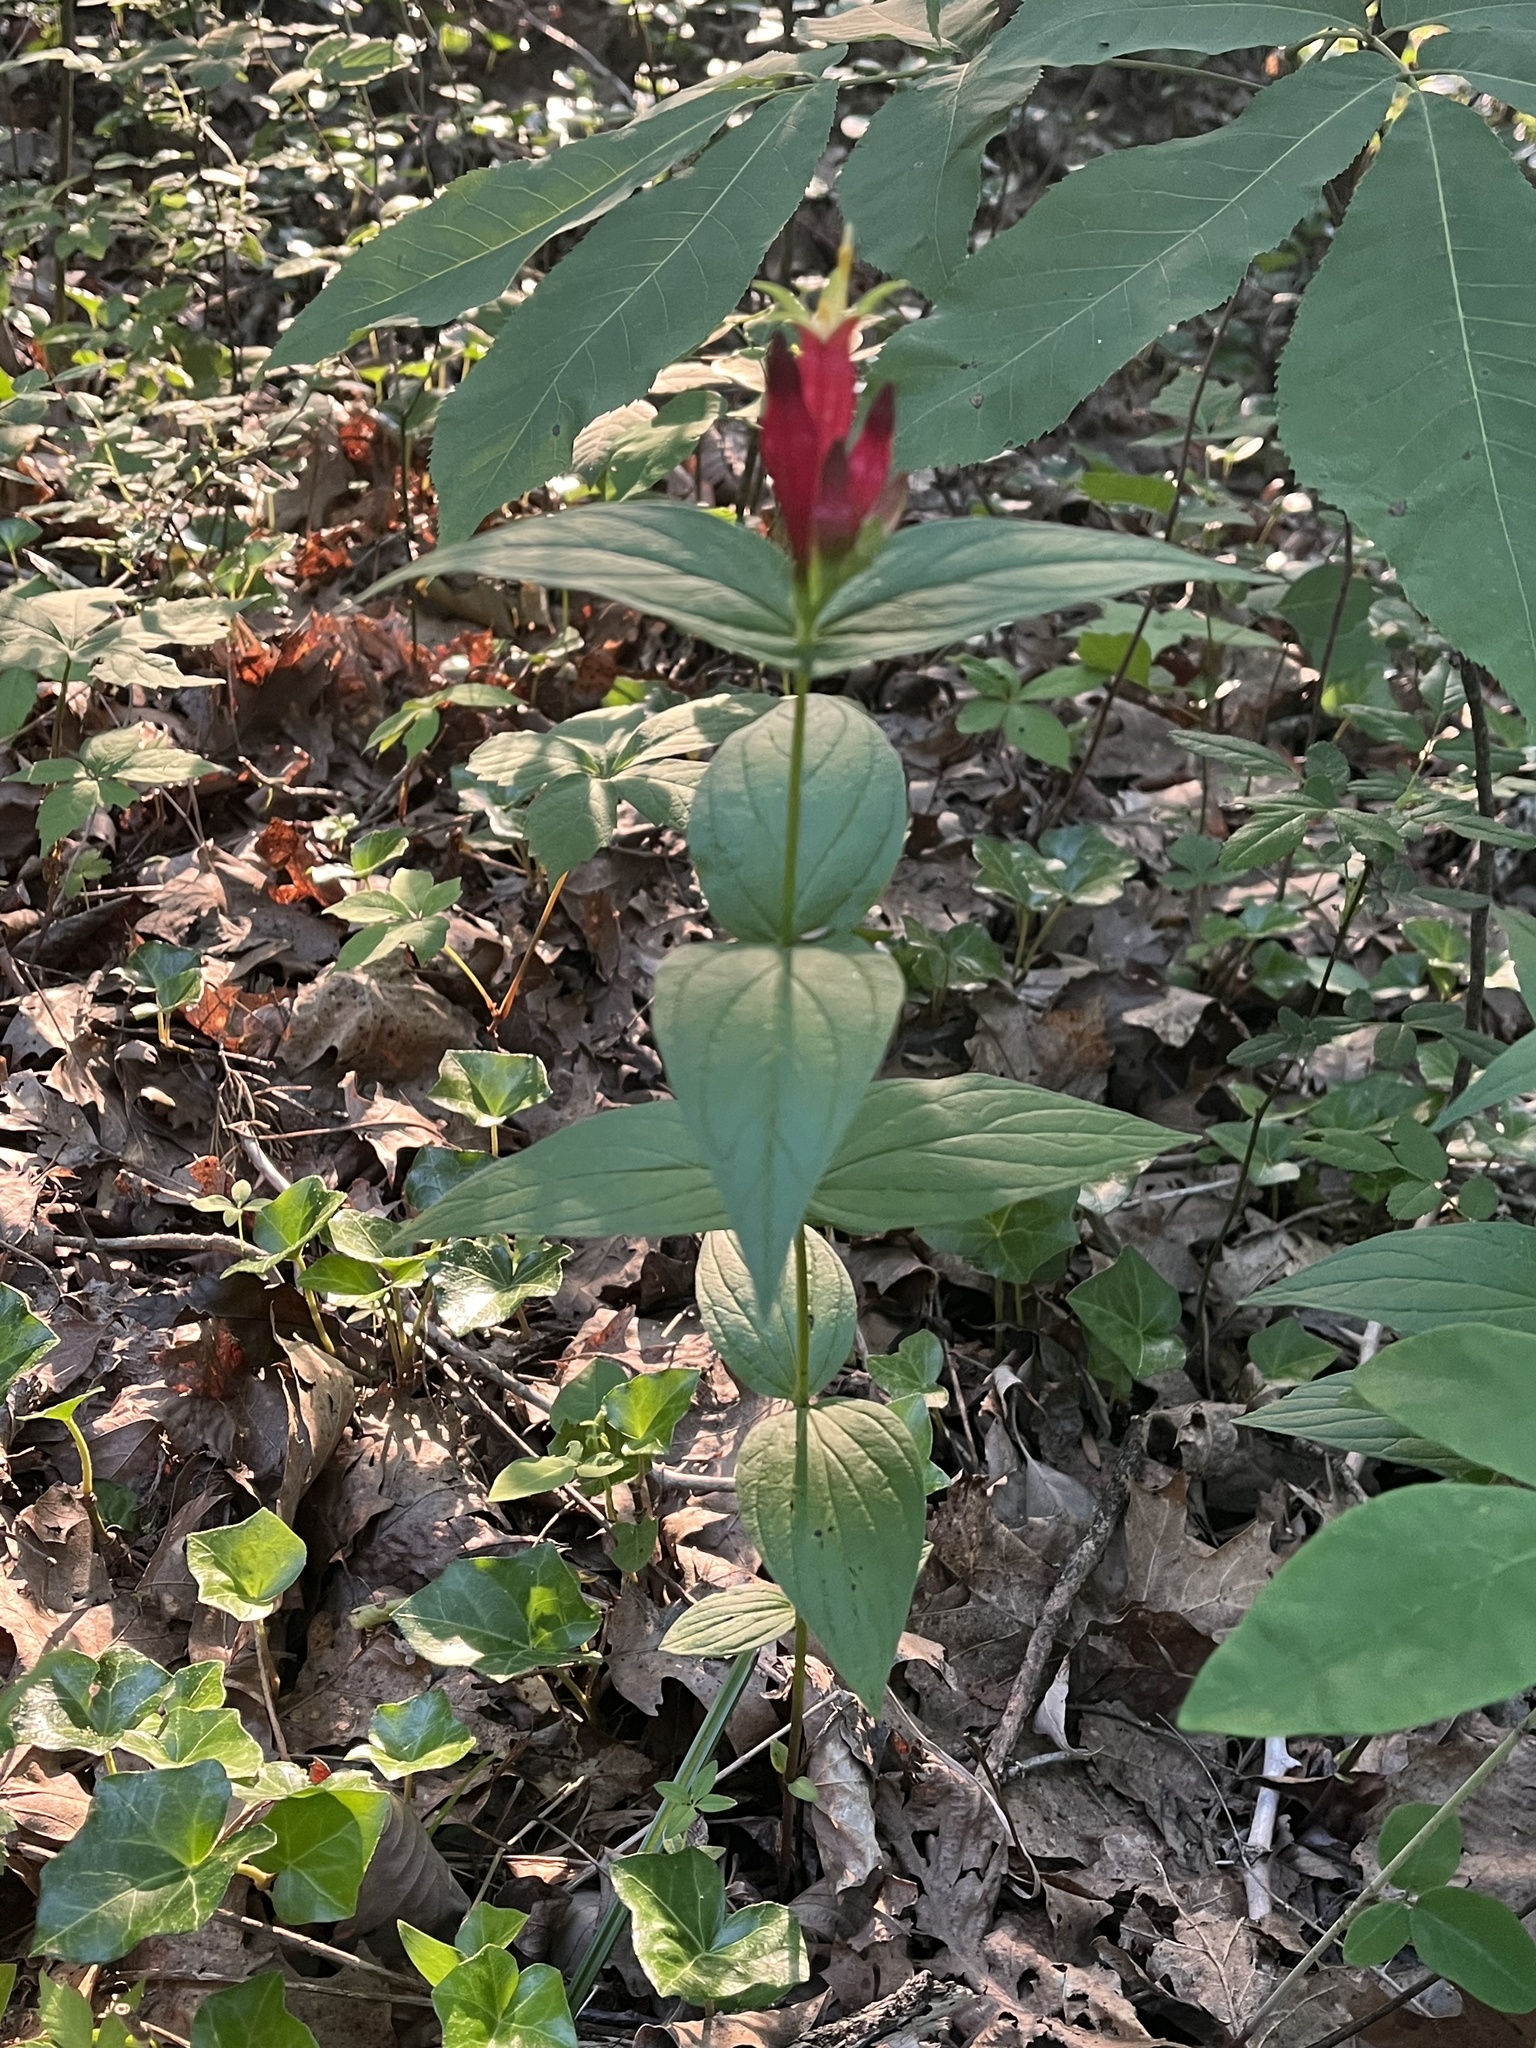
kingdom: Plantae
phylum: Tracheophyta
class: Magnoliopsida
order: Gentianales
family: Loganiaceae
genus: Spigelia
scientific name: Spigelia marilandica
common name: Indian-pink
